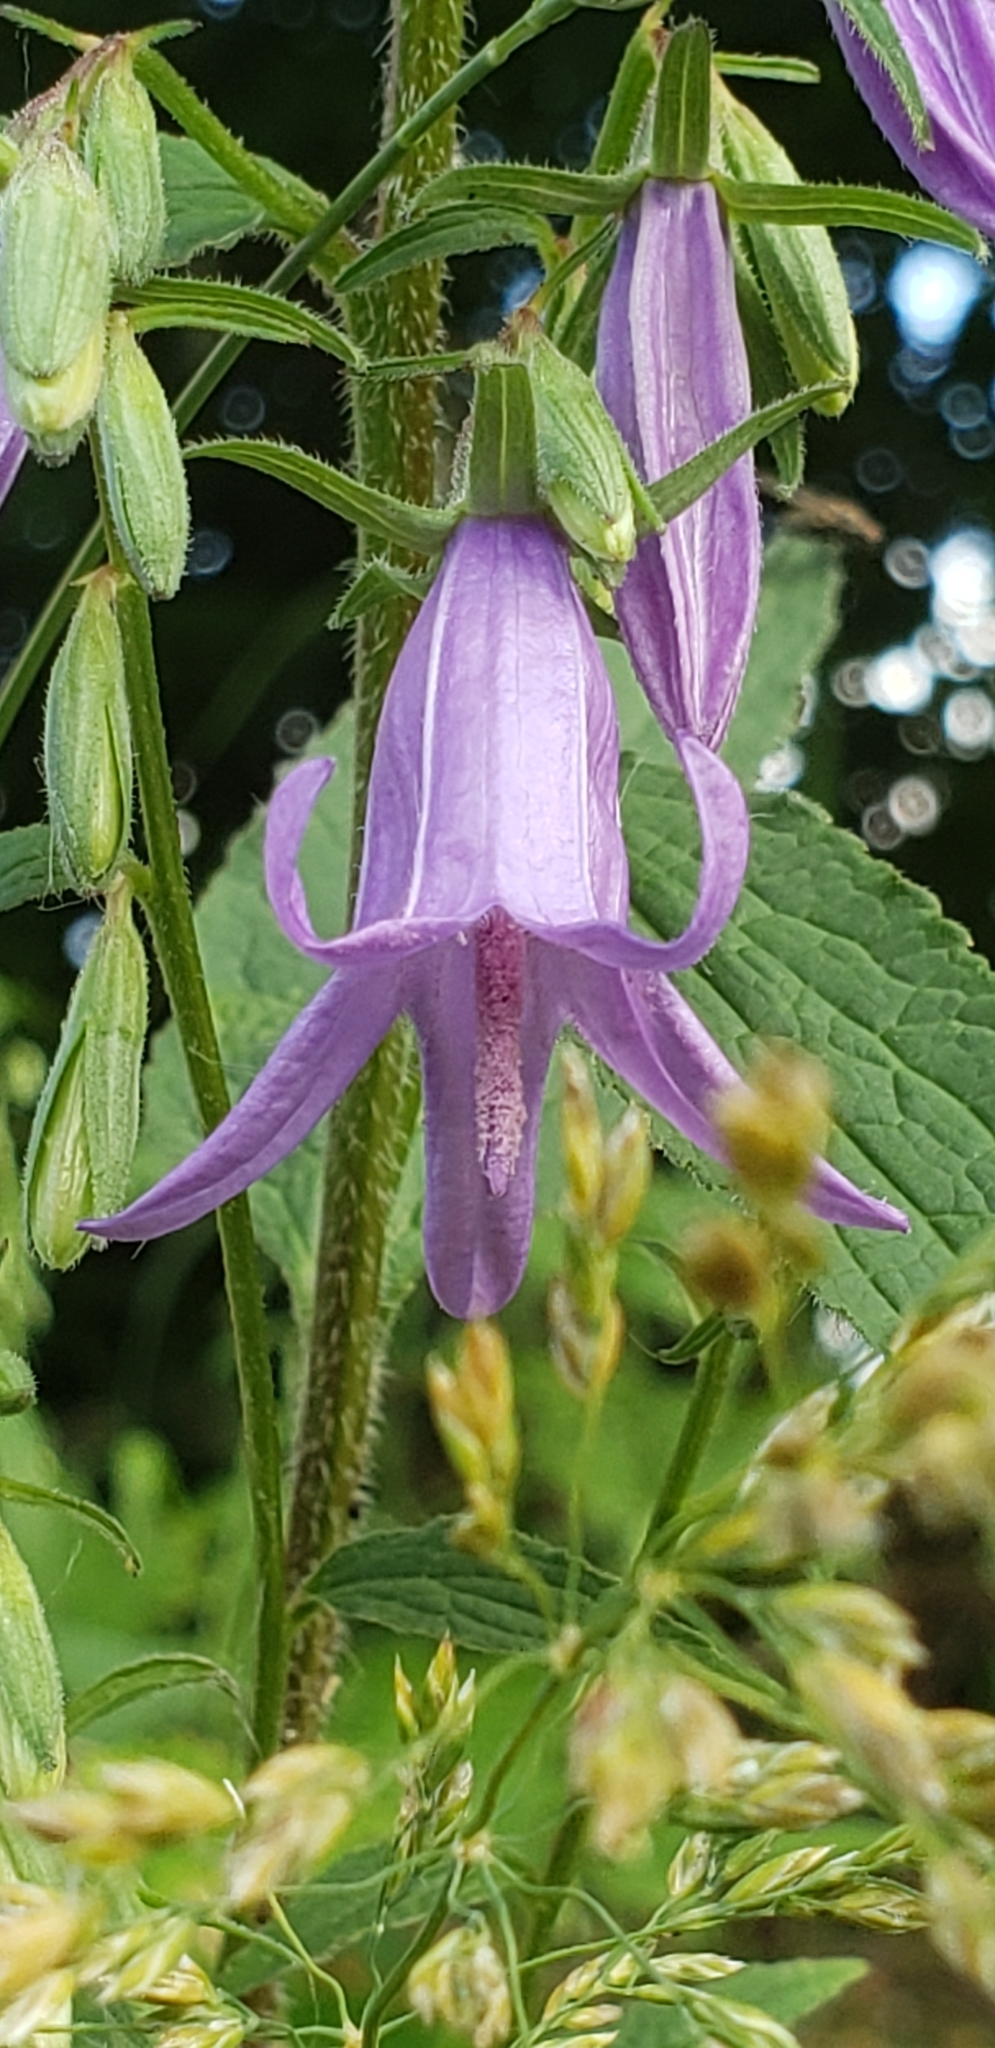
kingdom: Plantae
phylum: Tracheophyta
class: Magnoliopsida
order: Asterales
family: Campanulaceae
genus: Campanula
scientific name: Campanula rapunculoides
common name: Creeping bellflower
